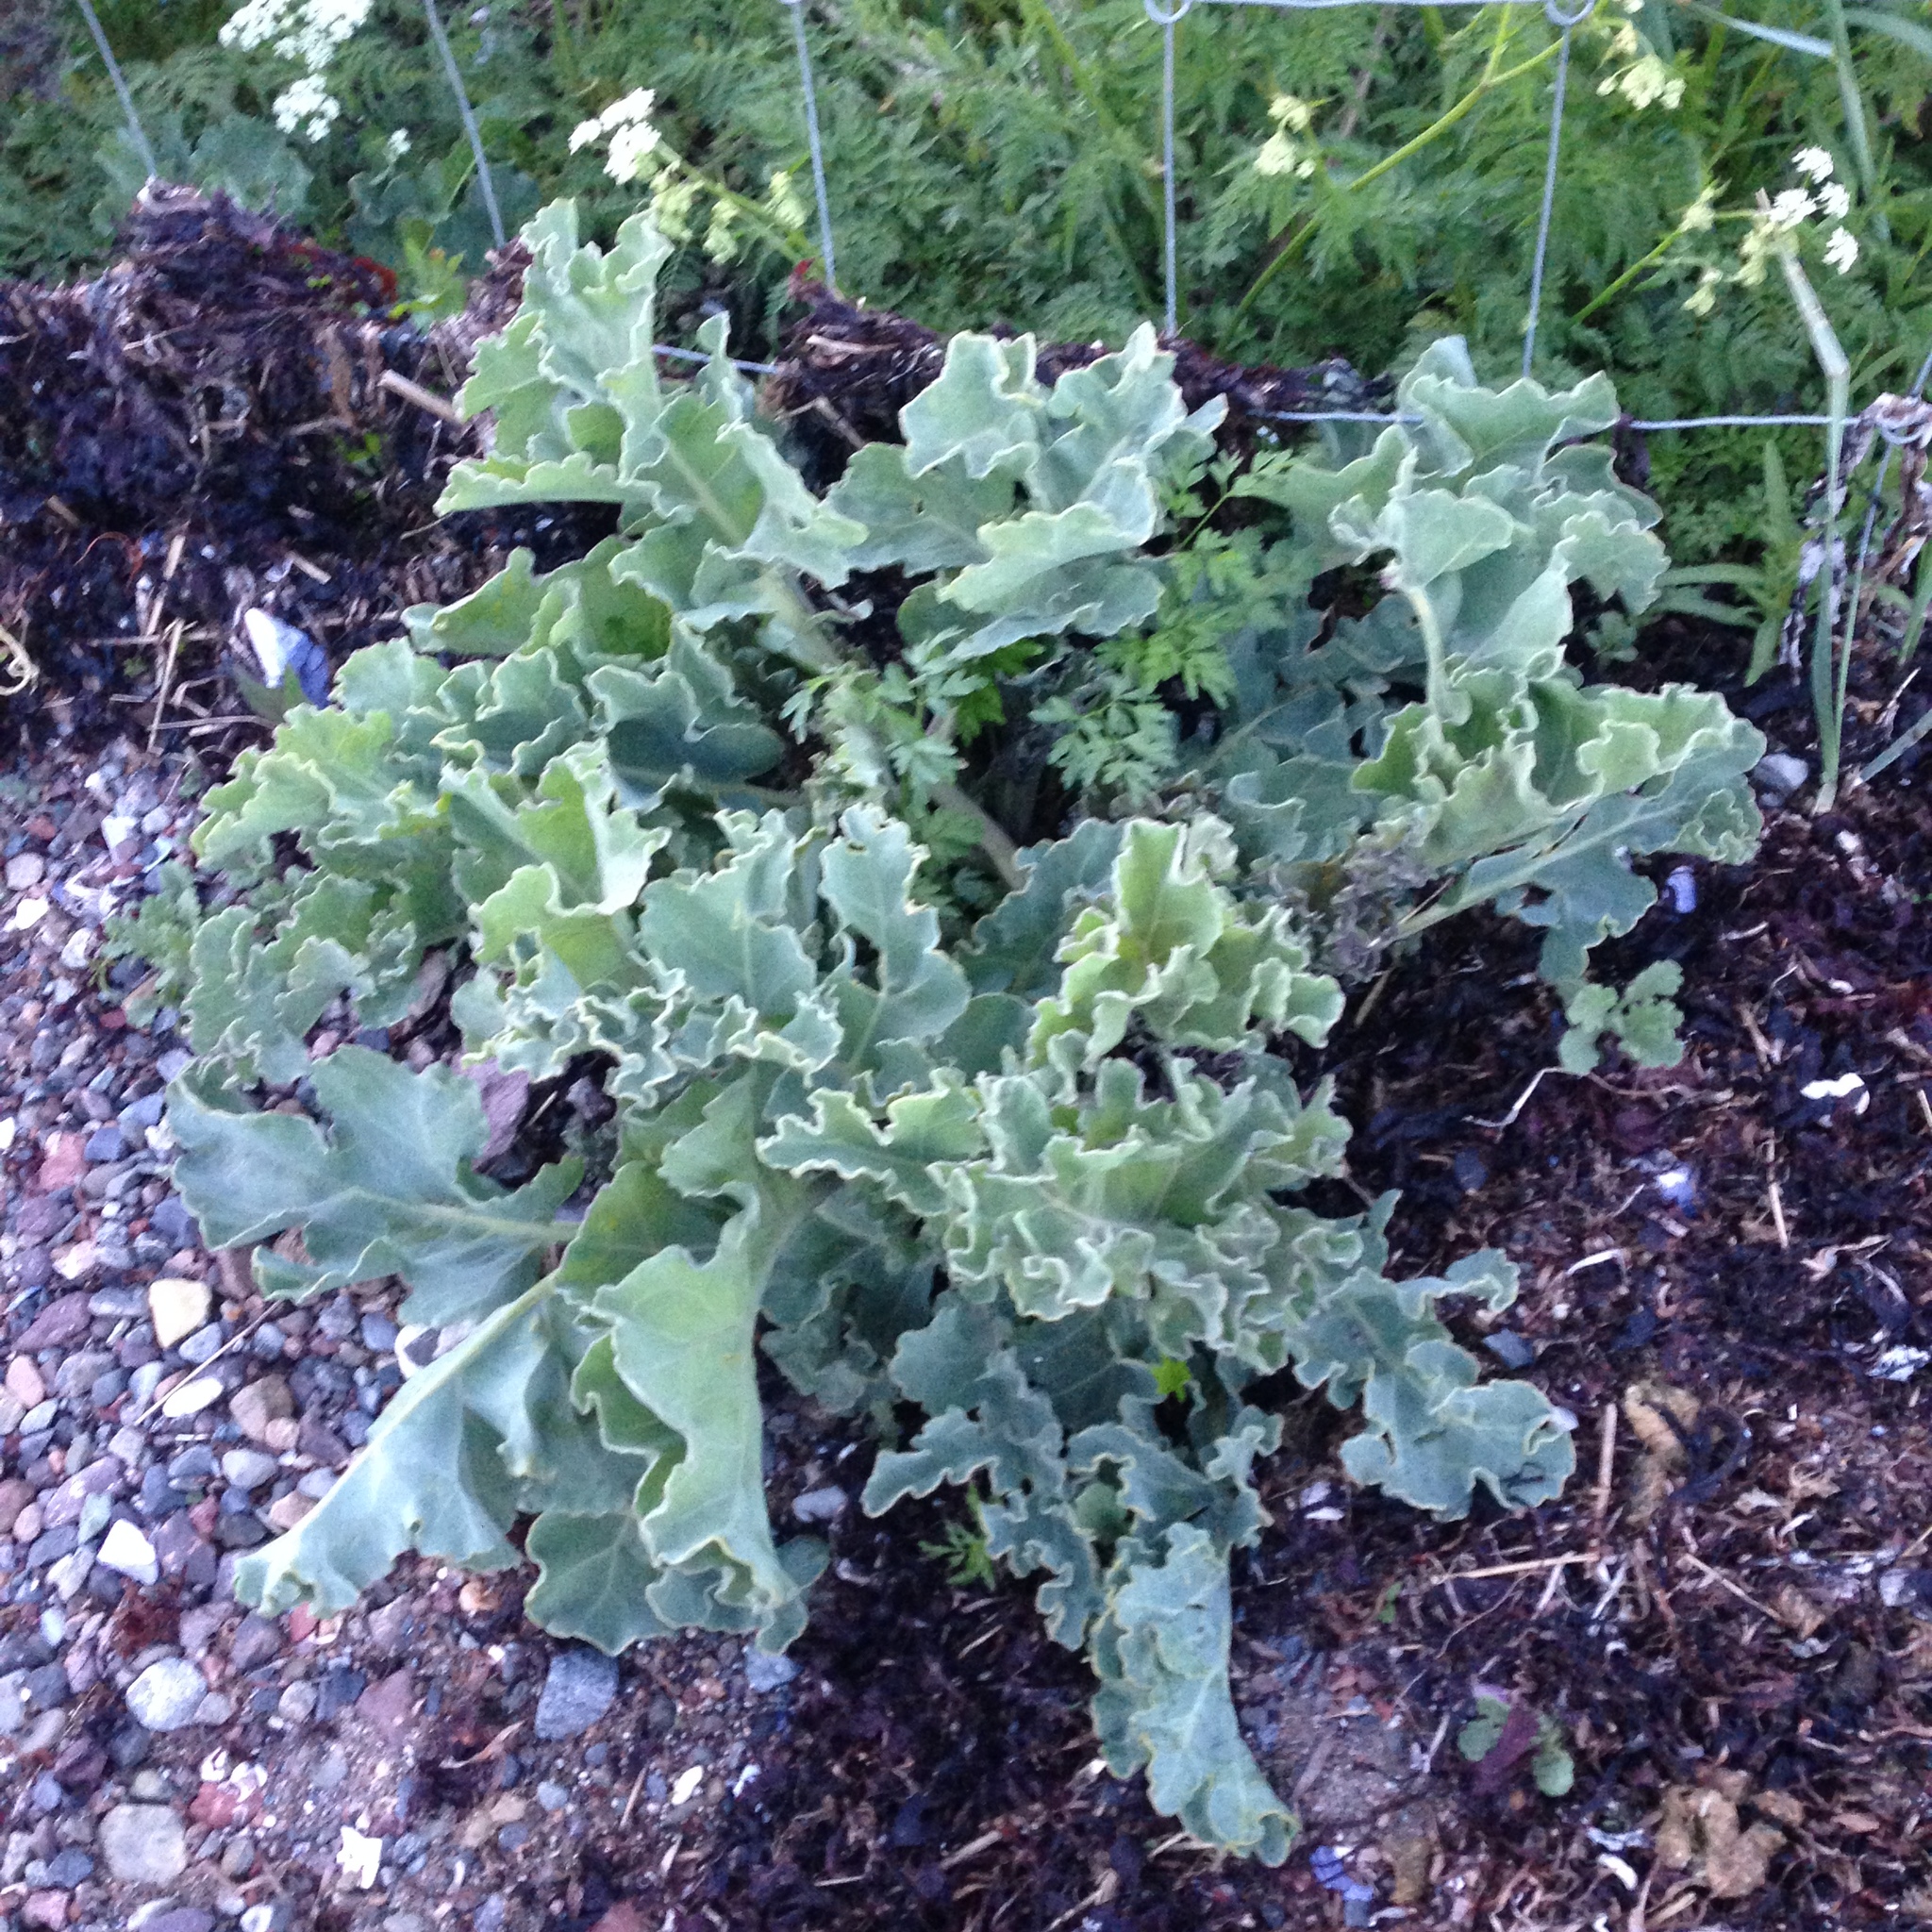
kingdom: Plantae
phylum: Tracheophyta
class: Magnoliopsida
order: Brassicales
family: Brassicaceae
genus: Crambe
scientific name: Crambe maritima
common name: Sea-kale
